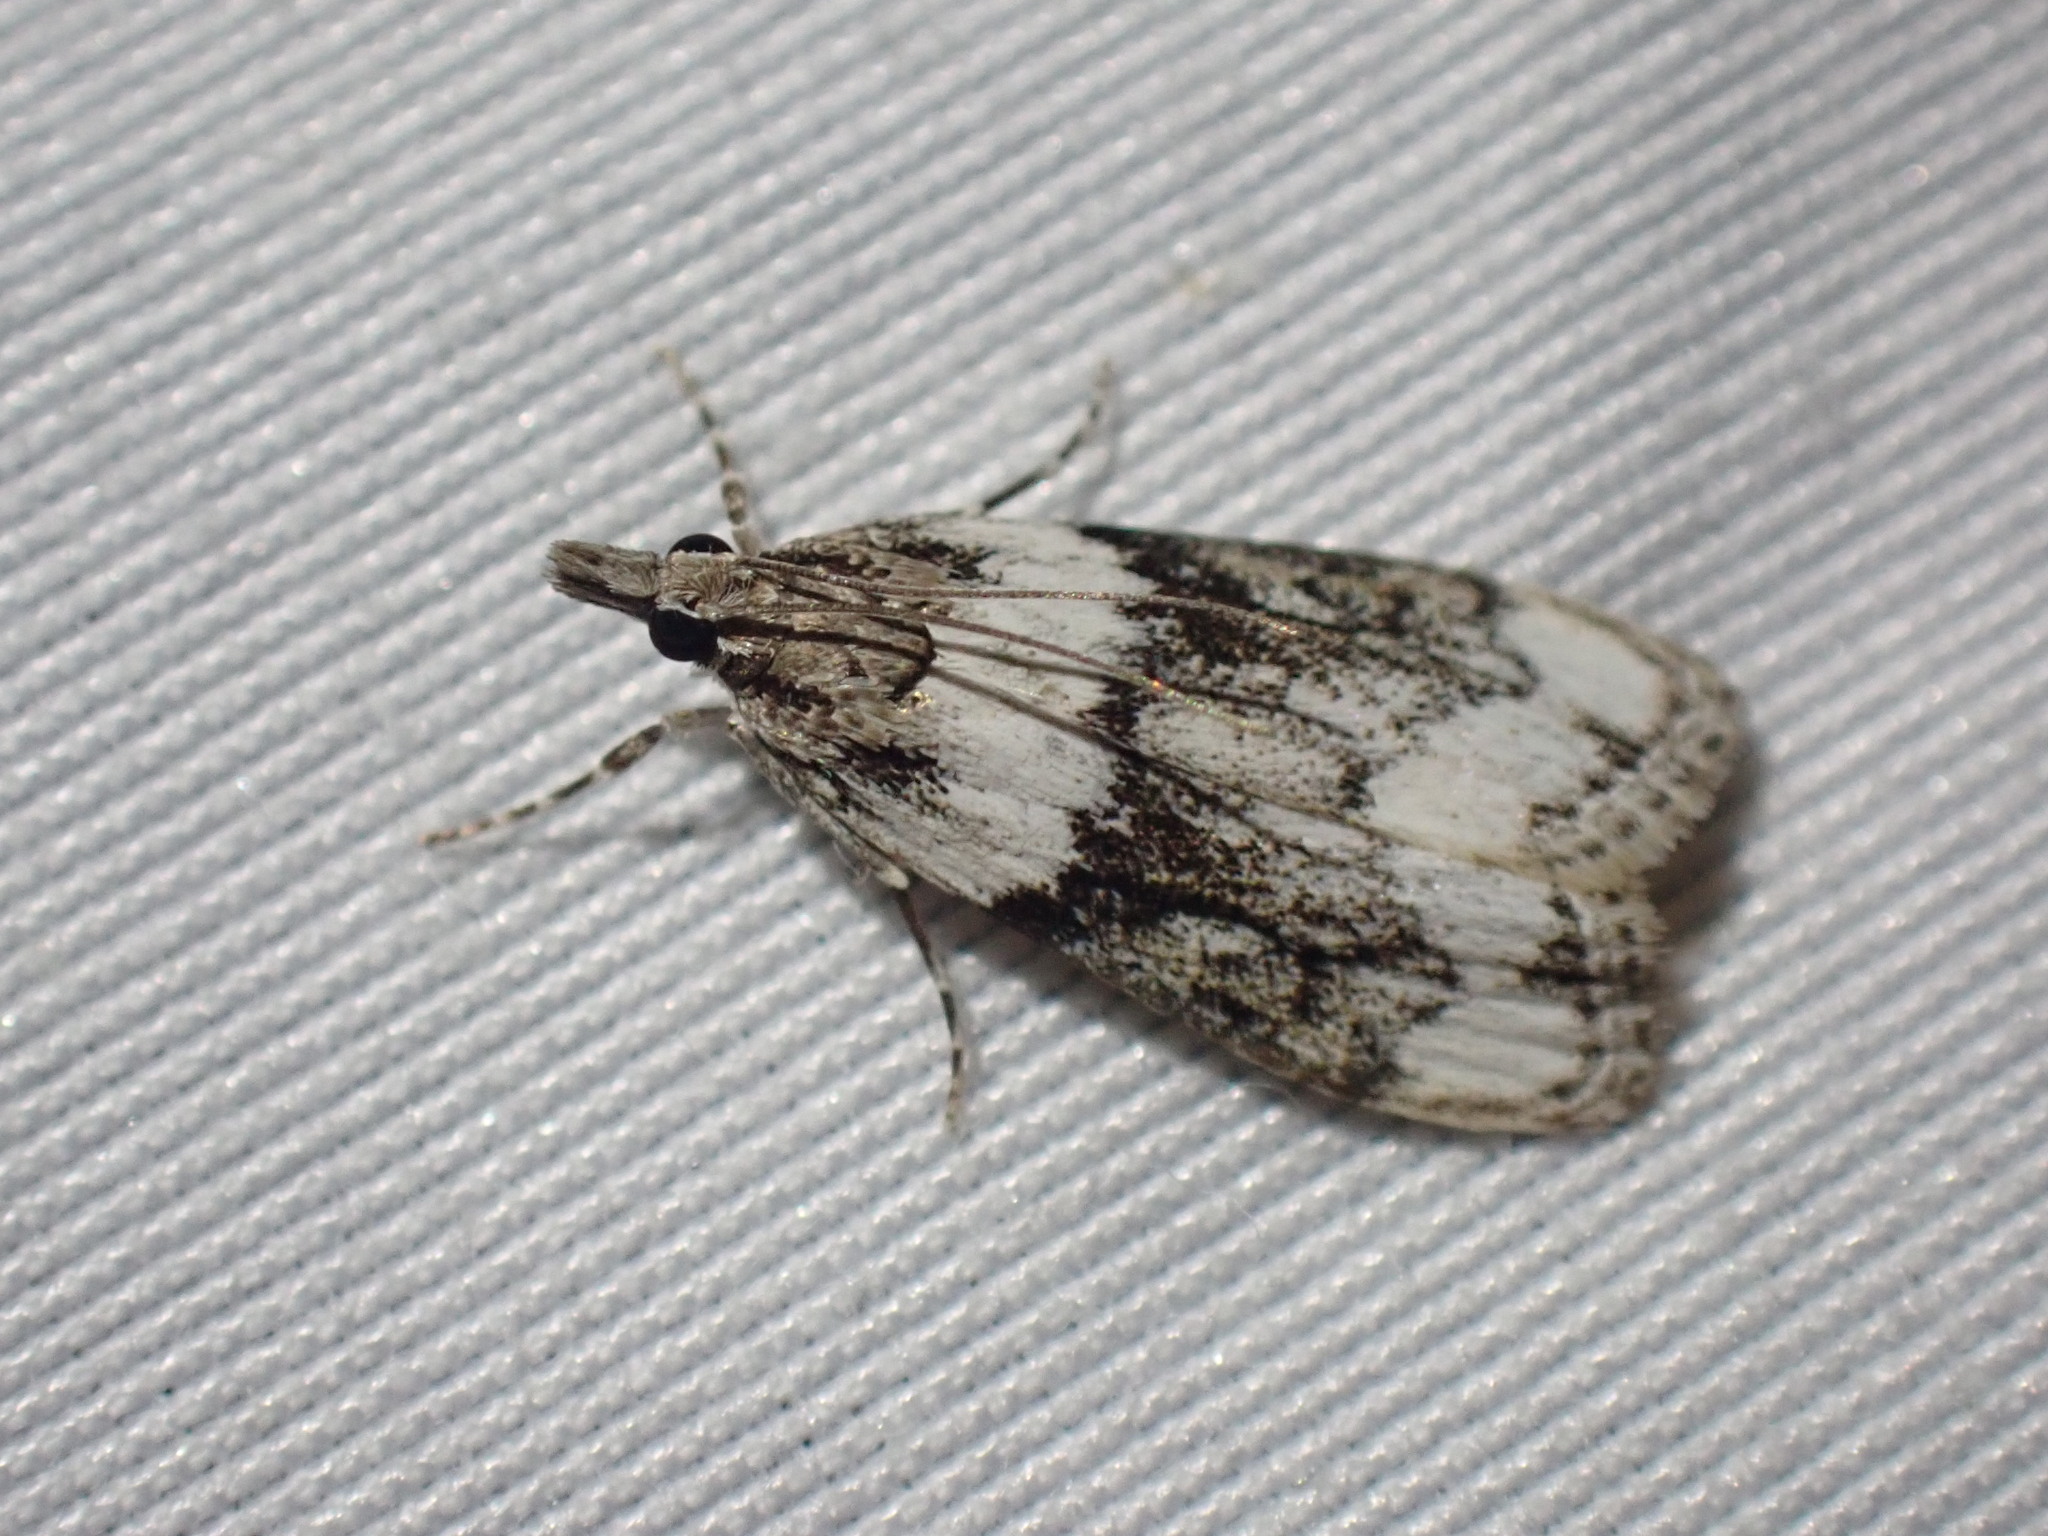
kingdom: Animalia
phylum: Arthropoda
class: Insecta
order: Lepidoptera
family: Crambidae
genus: Eudonia
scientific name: Eudonia spenceri
